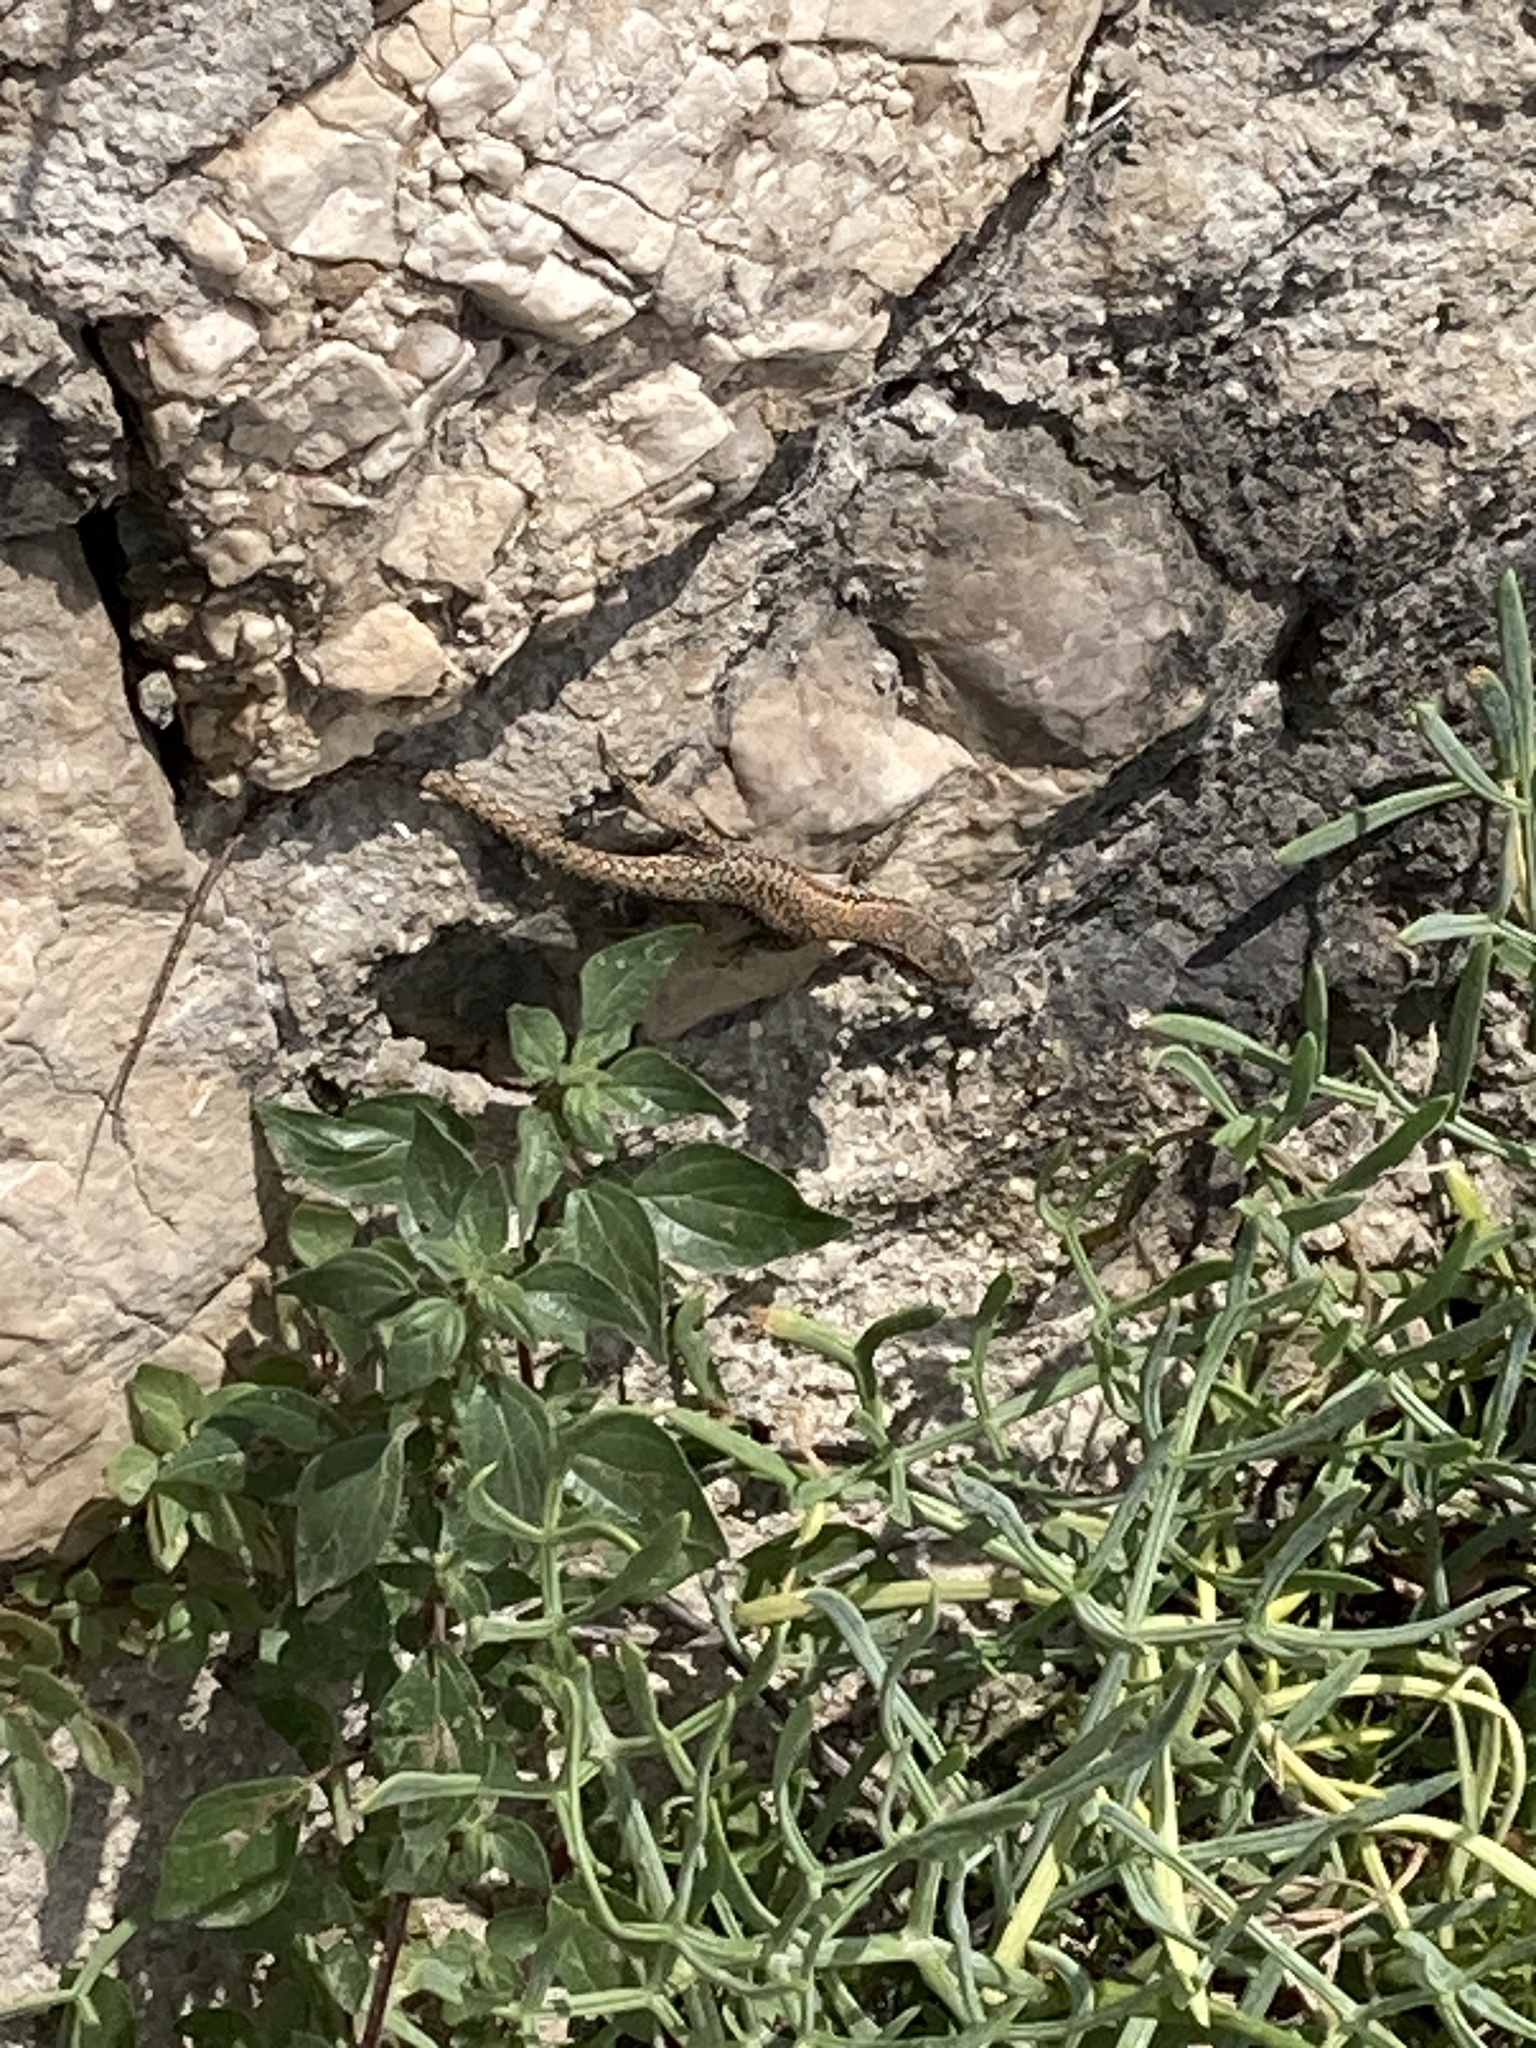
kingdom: Animalia
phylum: Chordata
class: Squamata
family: Lacertidae
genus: Podarcis
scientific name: Podarcis muralis
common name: Common wall lizard
